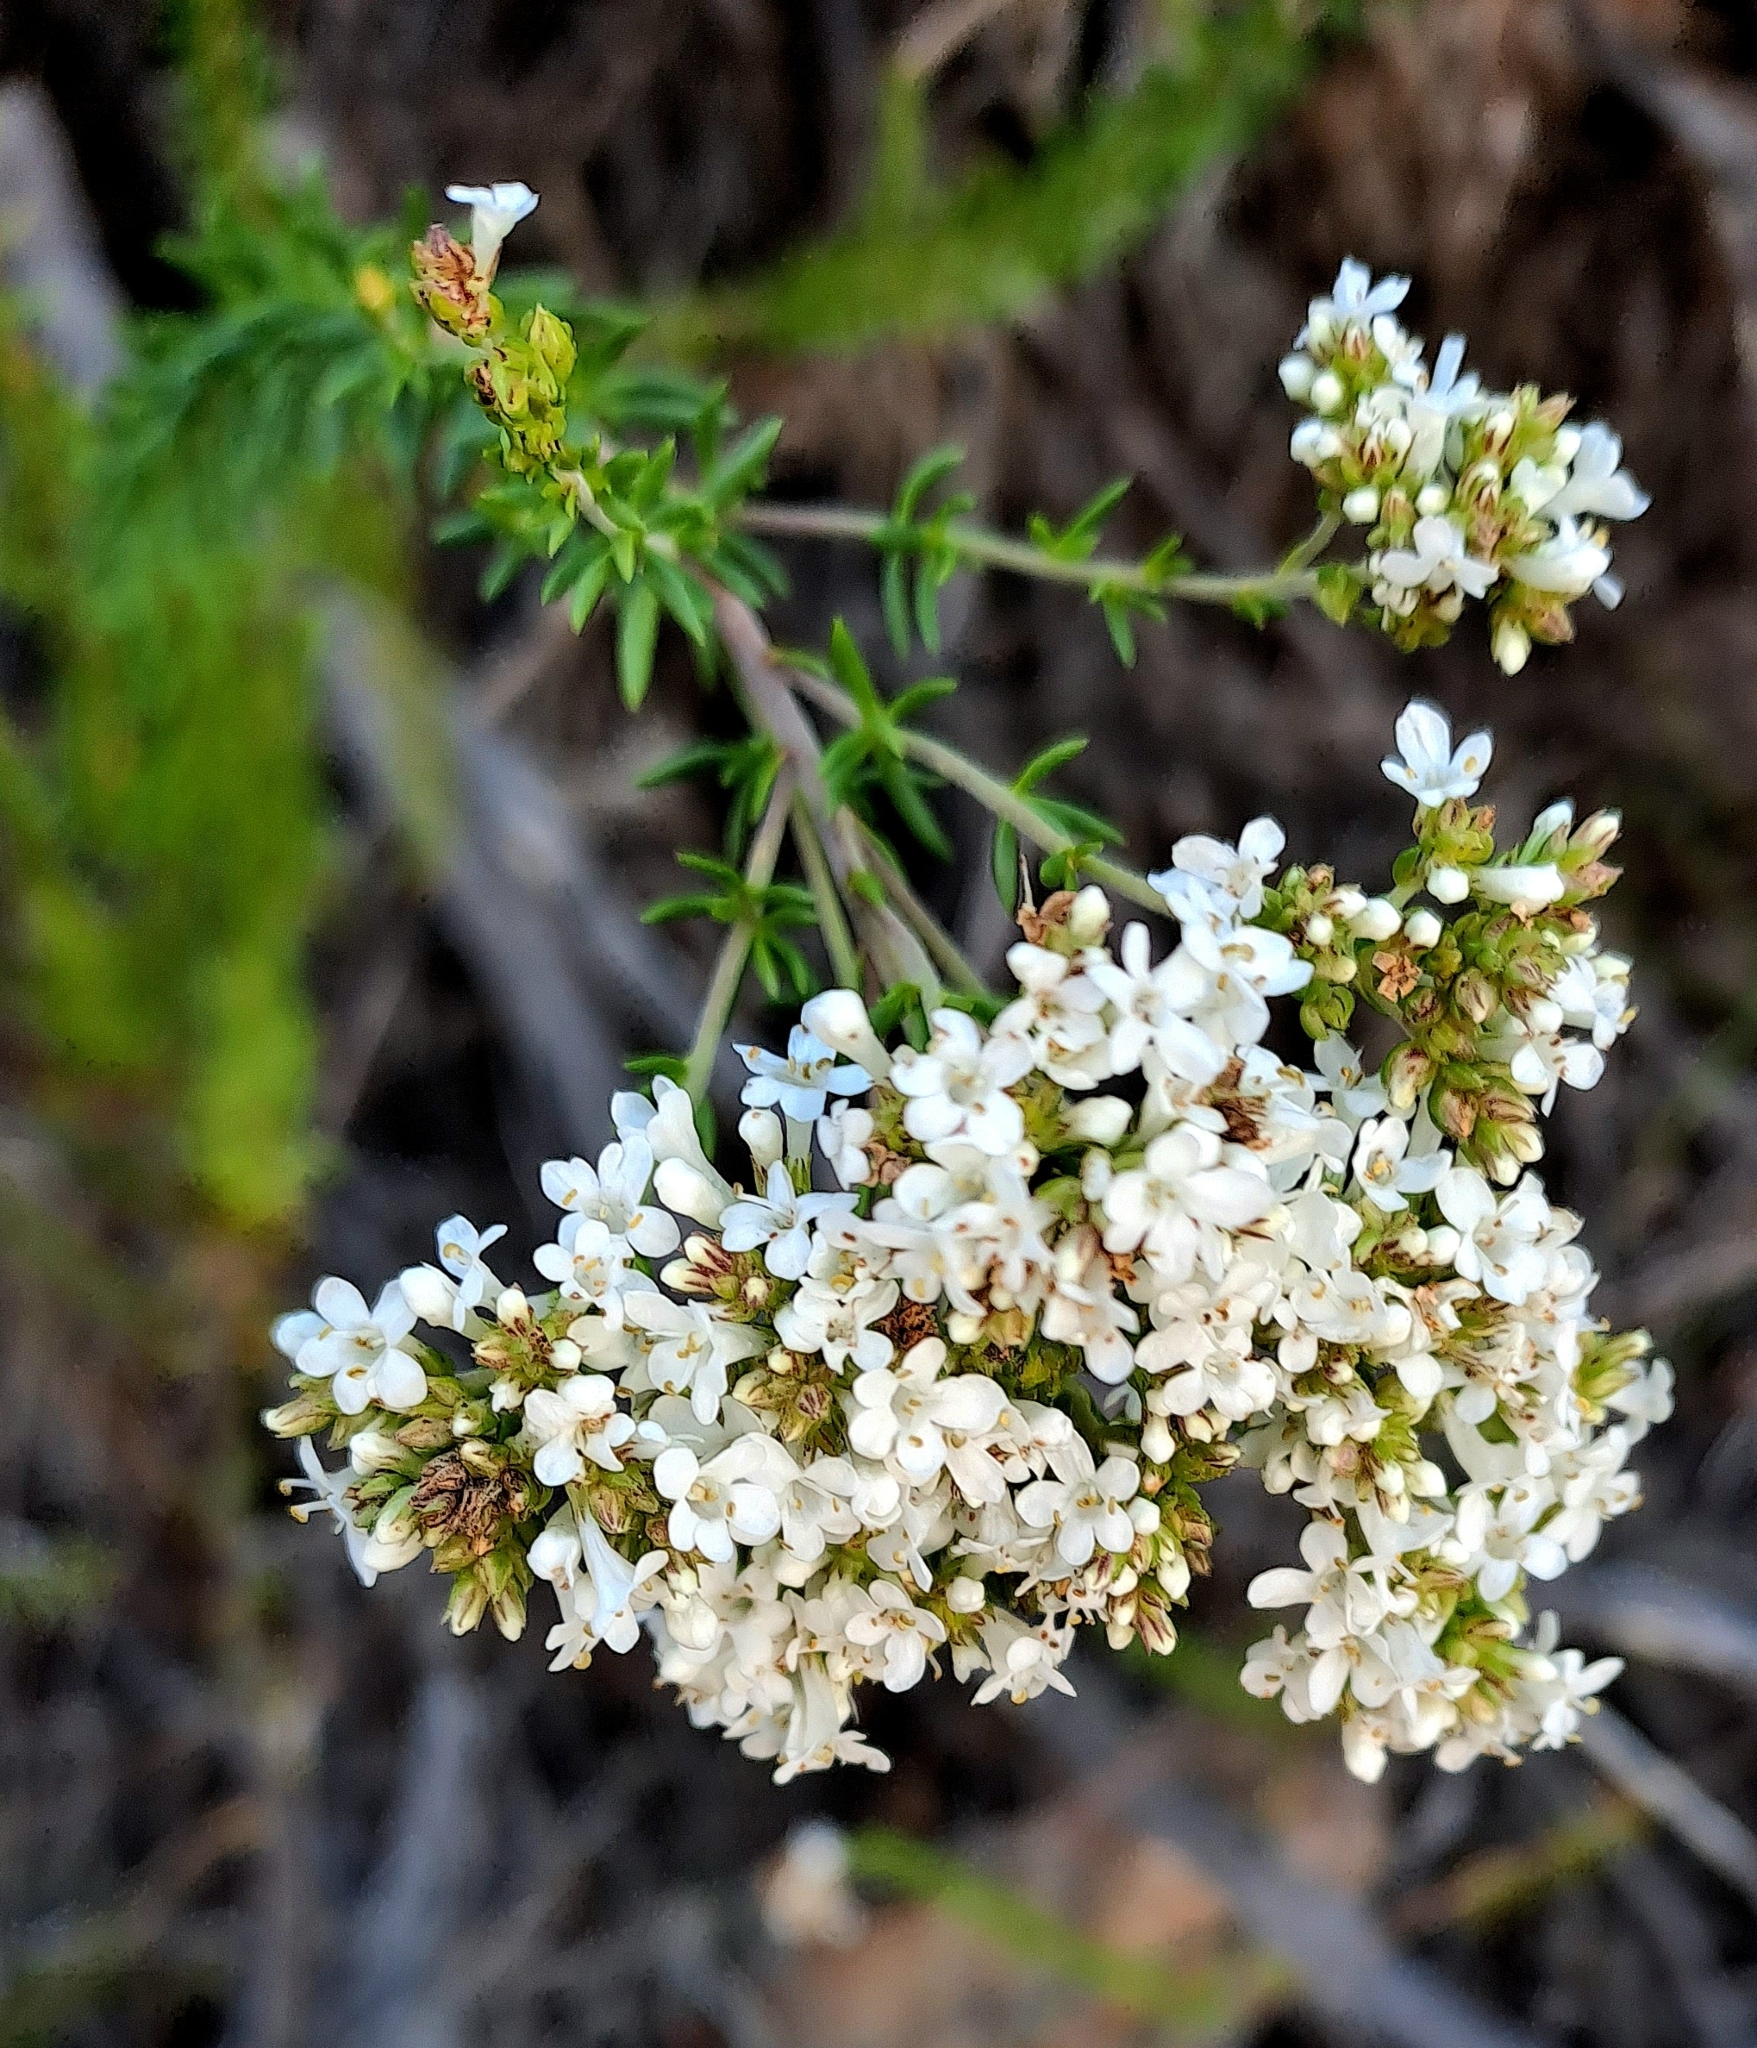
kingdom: Plantae
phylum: Tracheophyta
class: Magnoliopsida
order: Lamiales
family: Scrophulariaceae
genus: Selago
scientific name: Selago corymbosa
